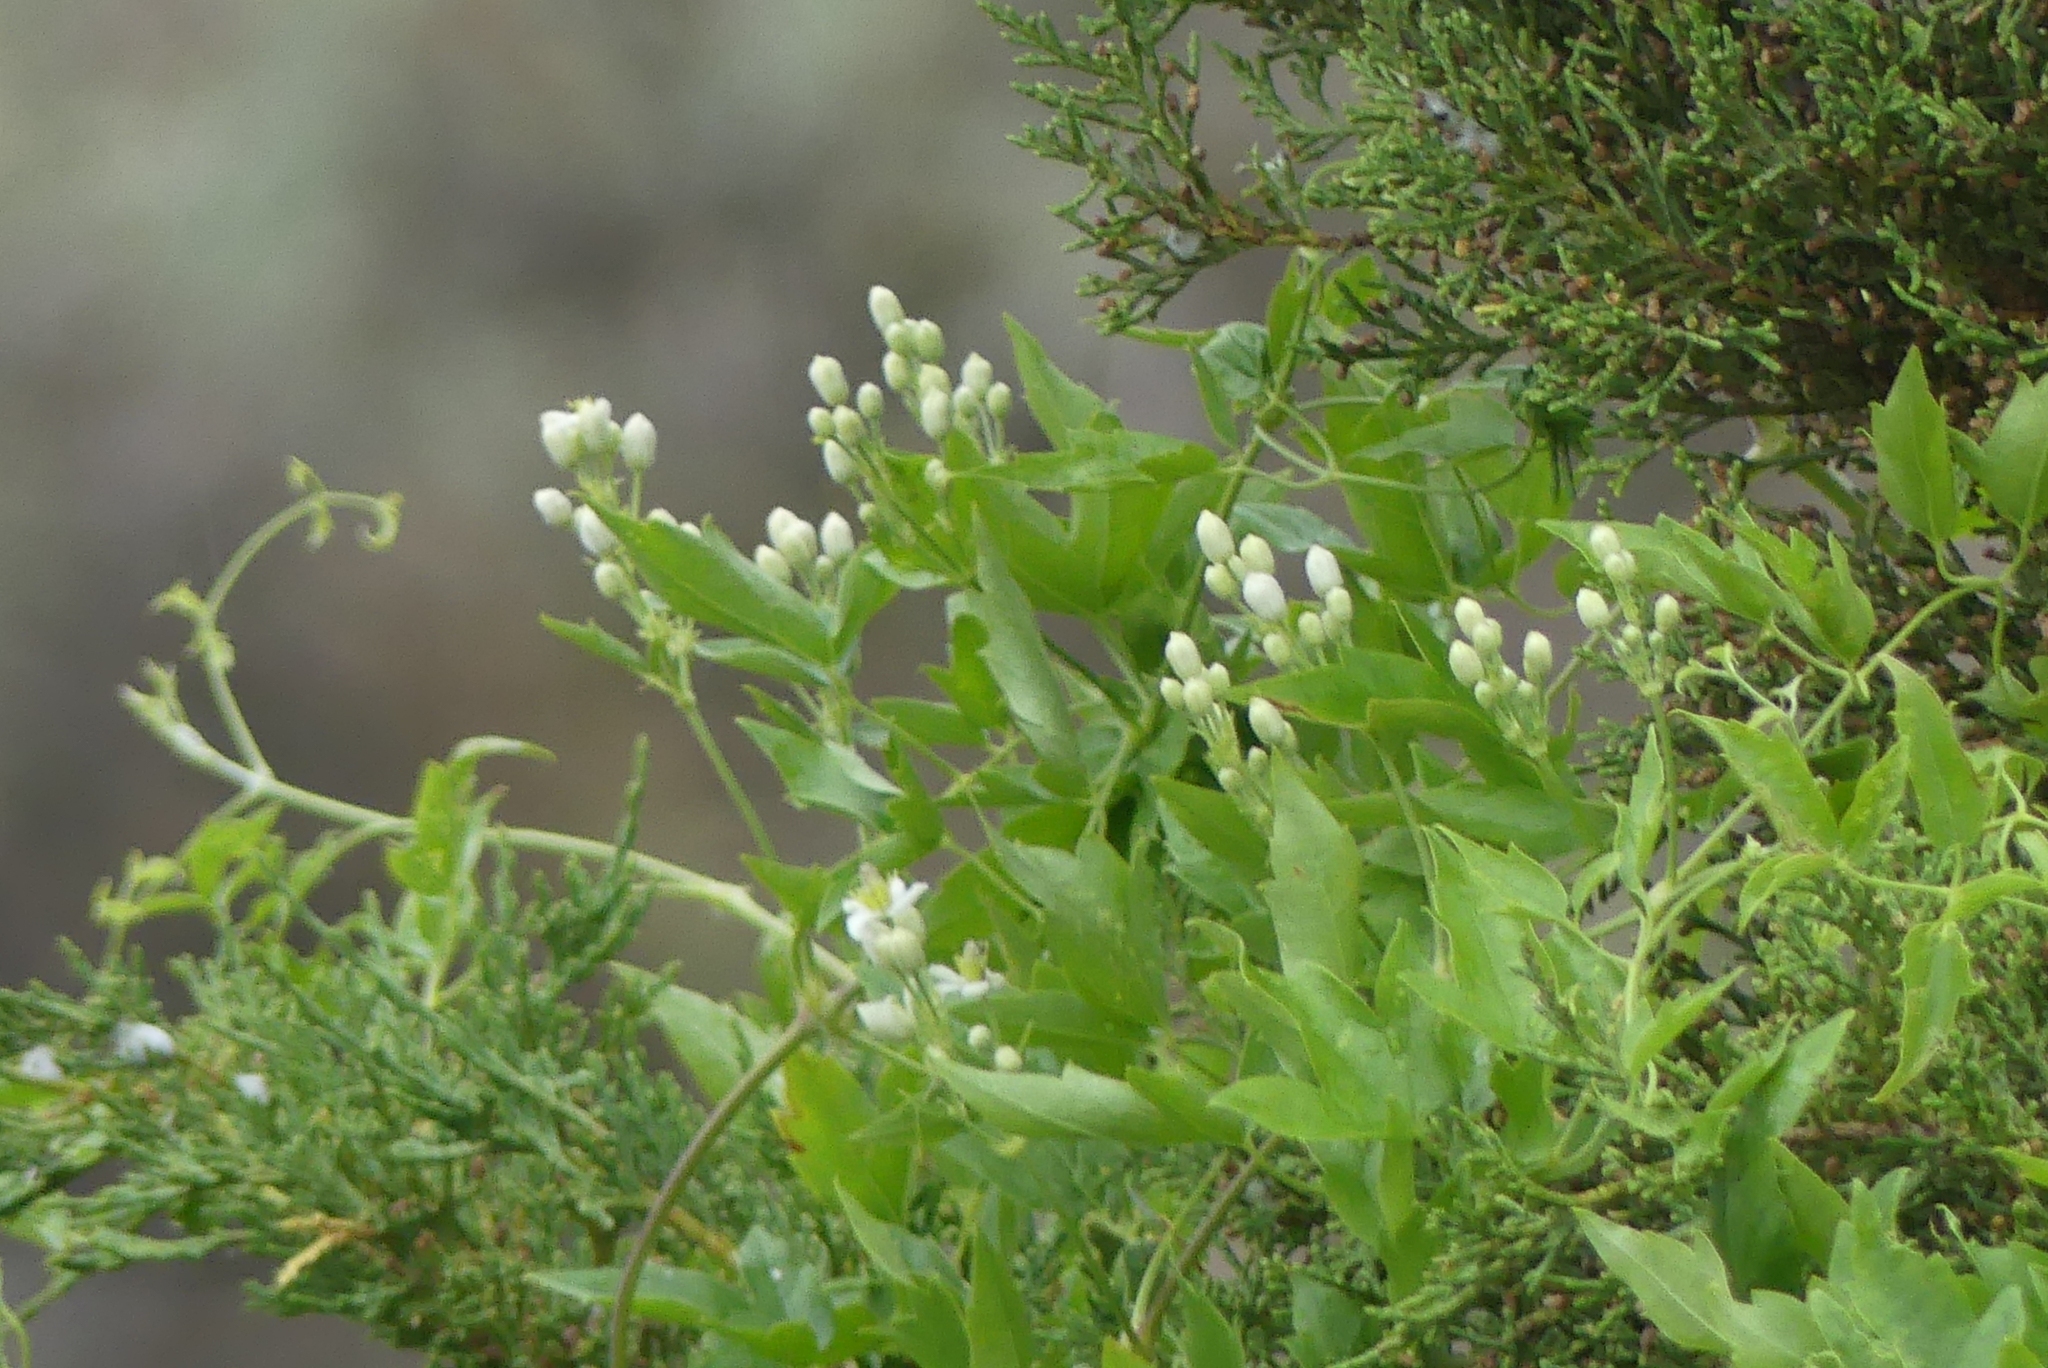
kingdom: Plantae
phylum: Tracheophyta
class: Magnoliopsida
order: Ranunculales
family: Ranunculaceae
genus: Clematis
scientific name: Clematis ligusticifolia
